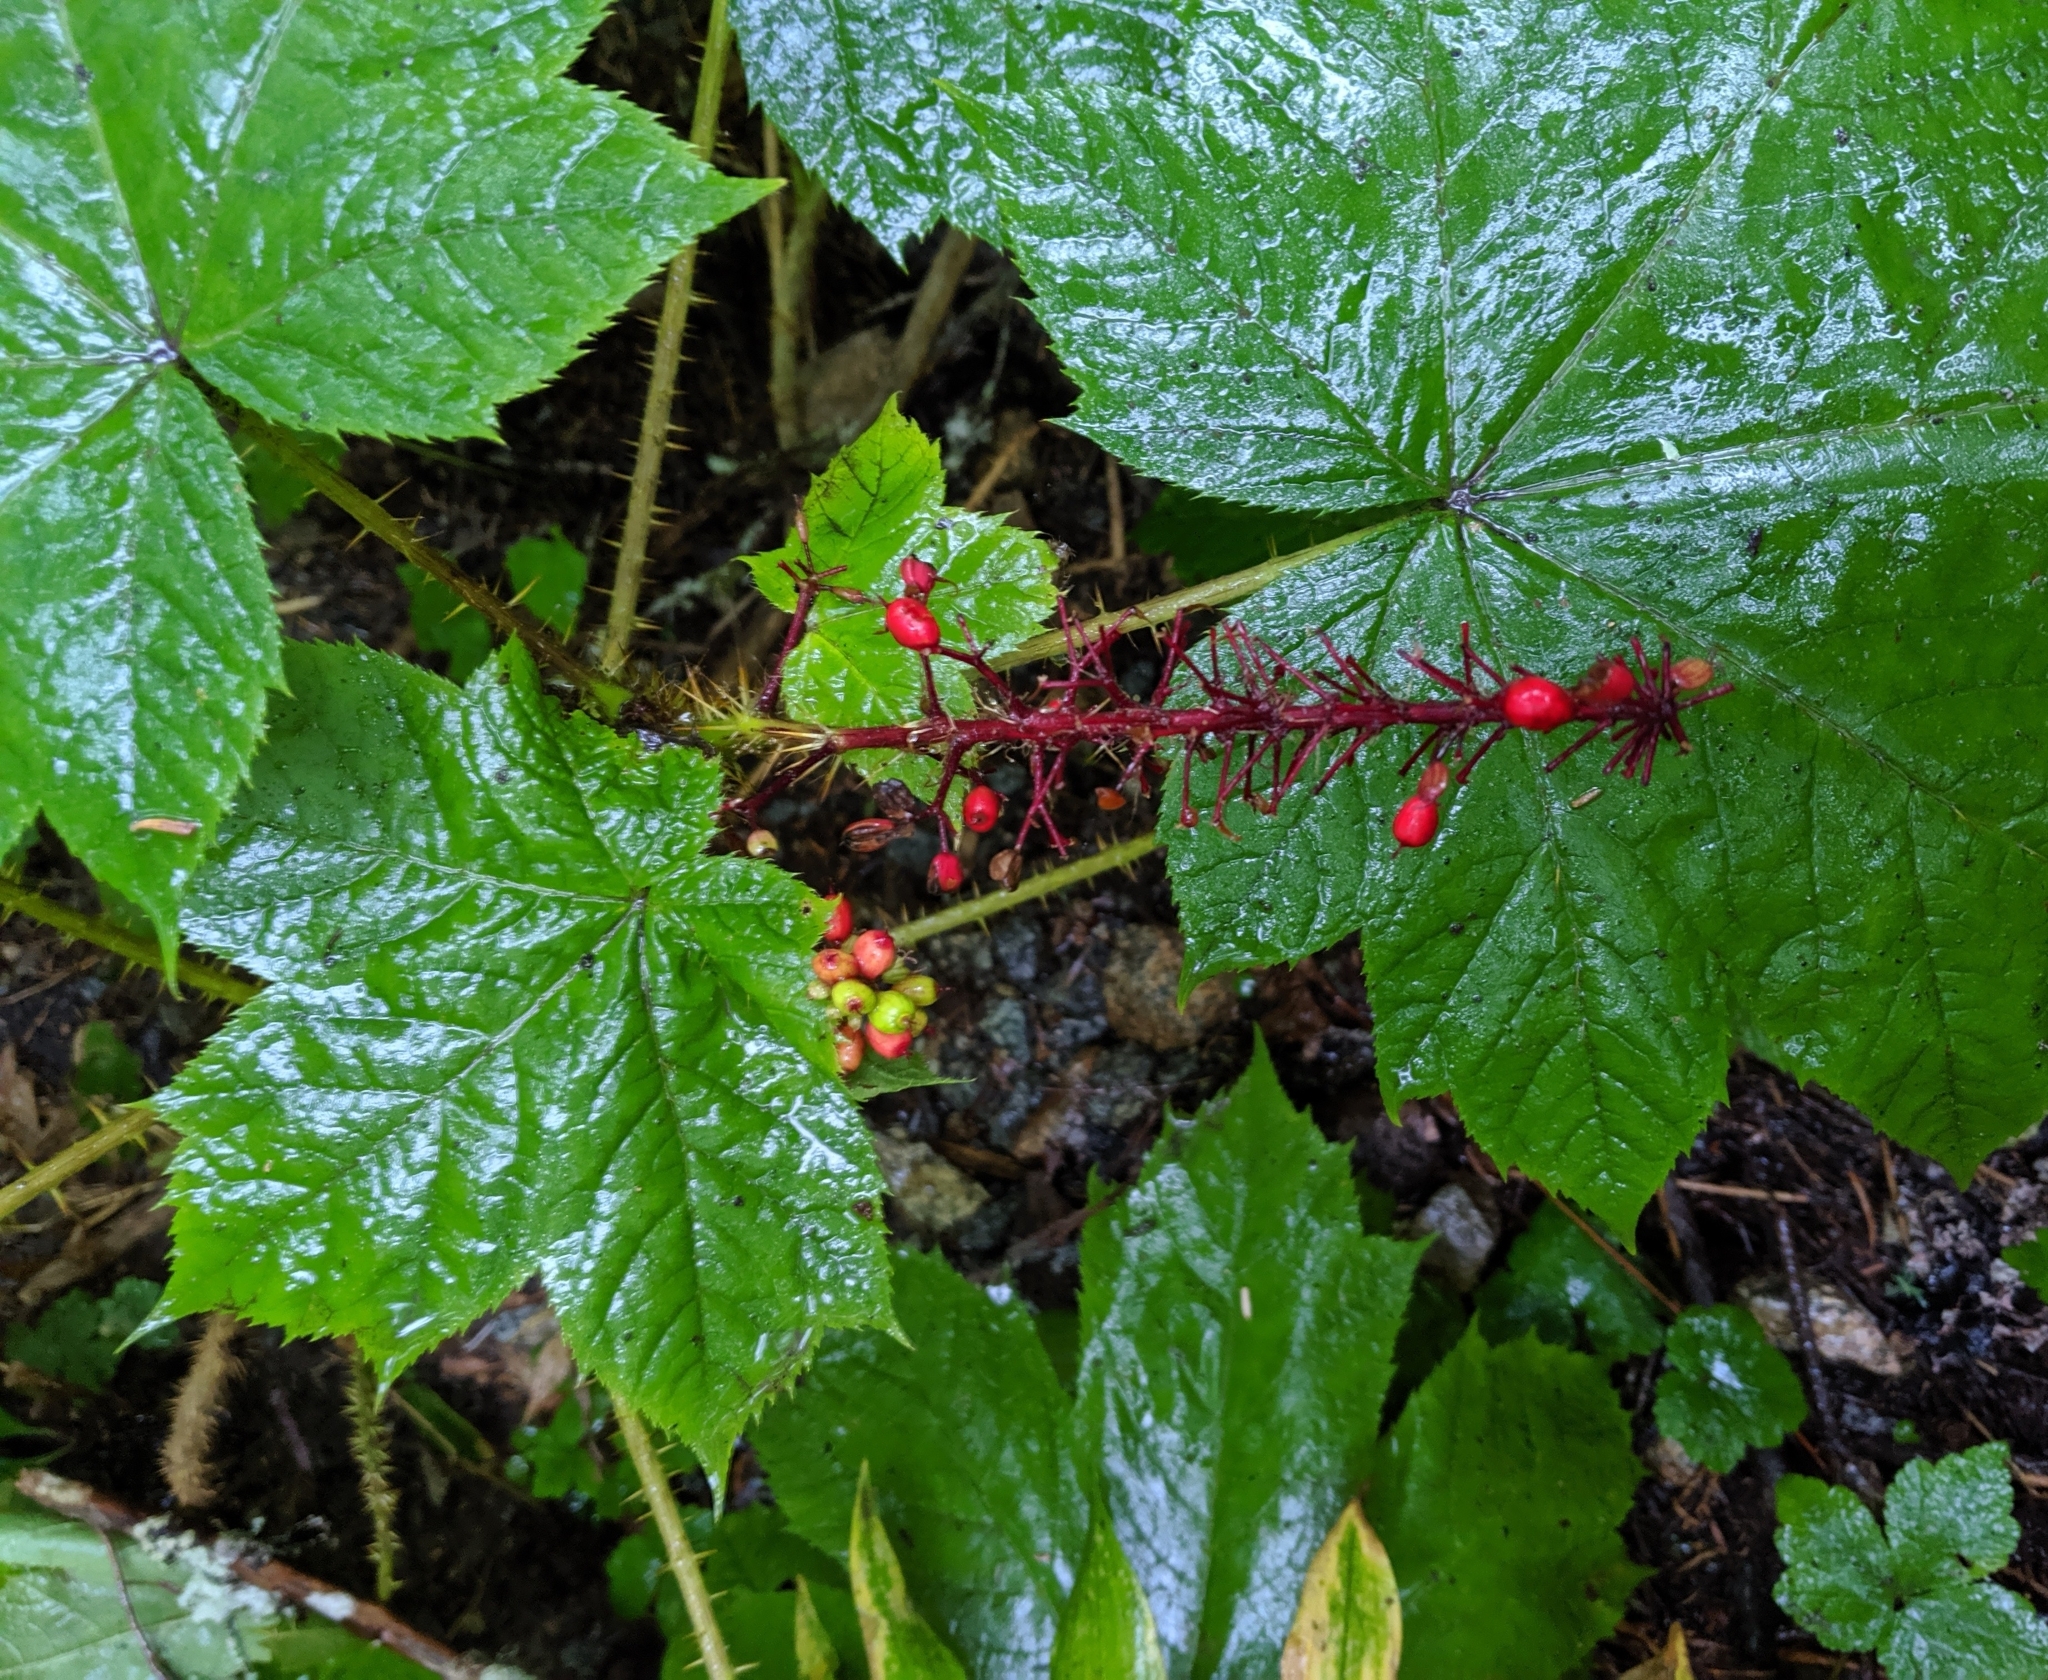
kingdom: Plantae
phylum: Tracheophyta
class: Magnoliopsida
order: Apiales
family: Araliaceae
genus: Oplopanax
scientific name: Oplopanax horridus
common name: Devil's walking-stick
